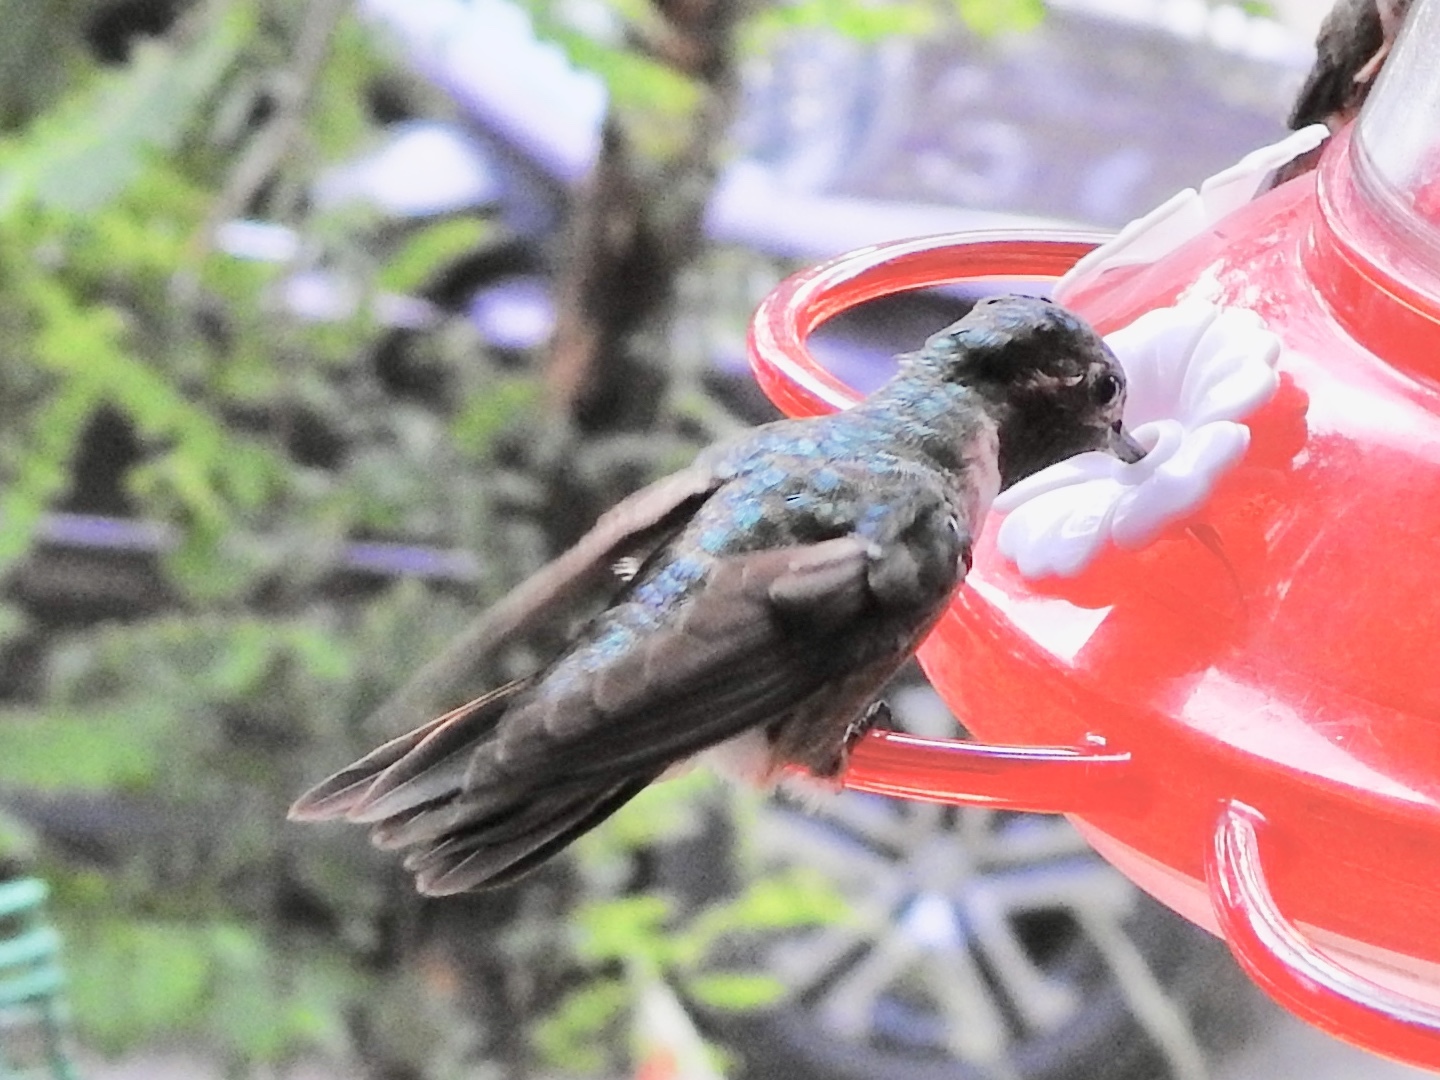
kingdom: Animalia
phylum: Chordata
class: Aves
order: Apodiformes
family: Trochilidae
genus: Archilochus
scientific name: Archilochus alexandri
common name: Black-chinned hummingbird
